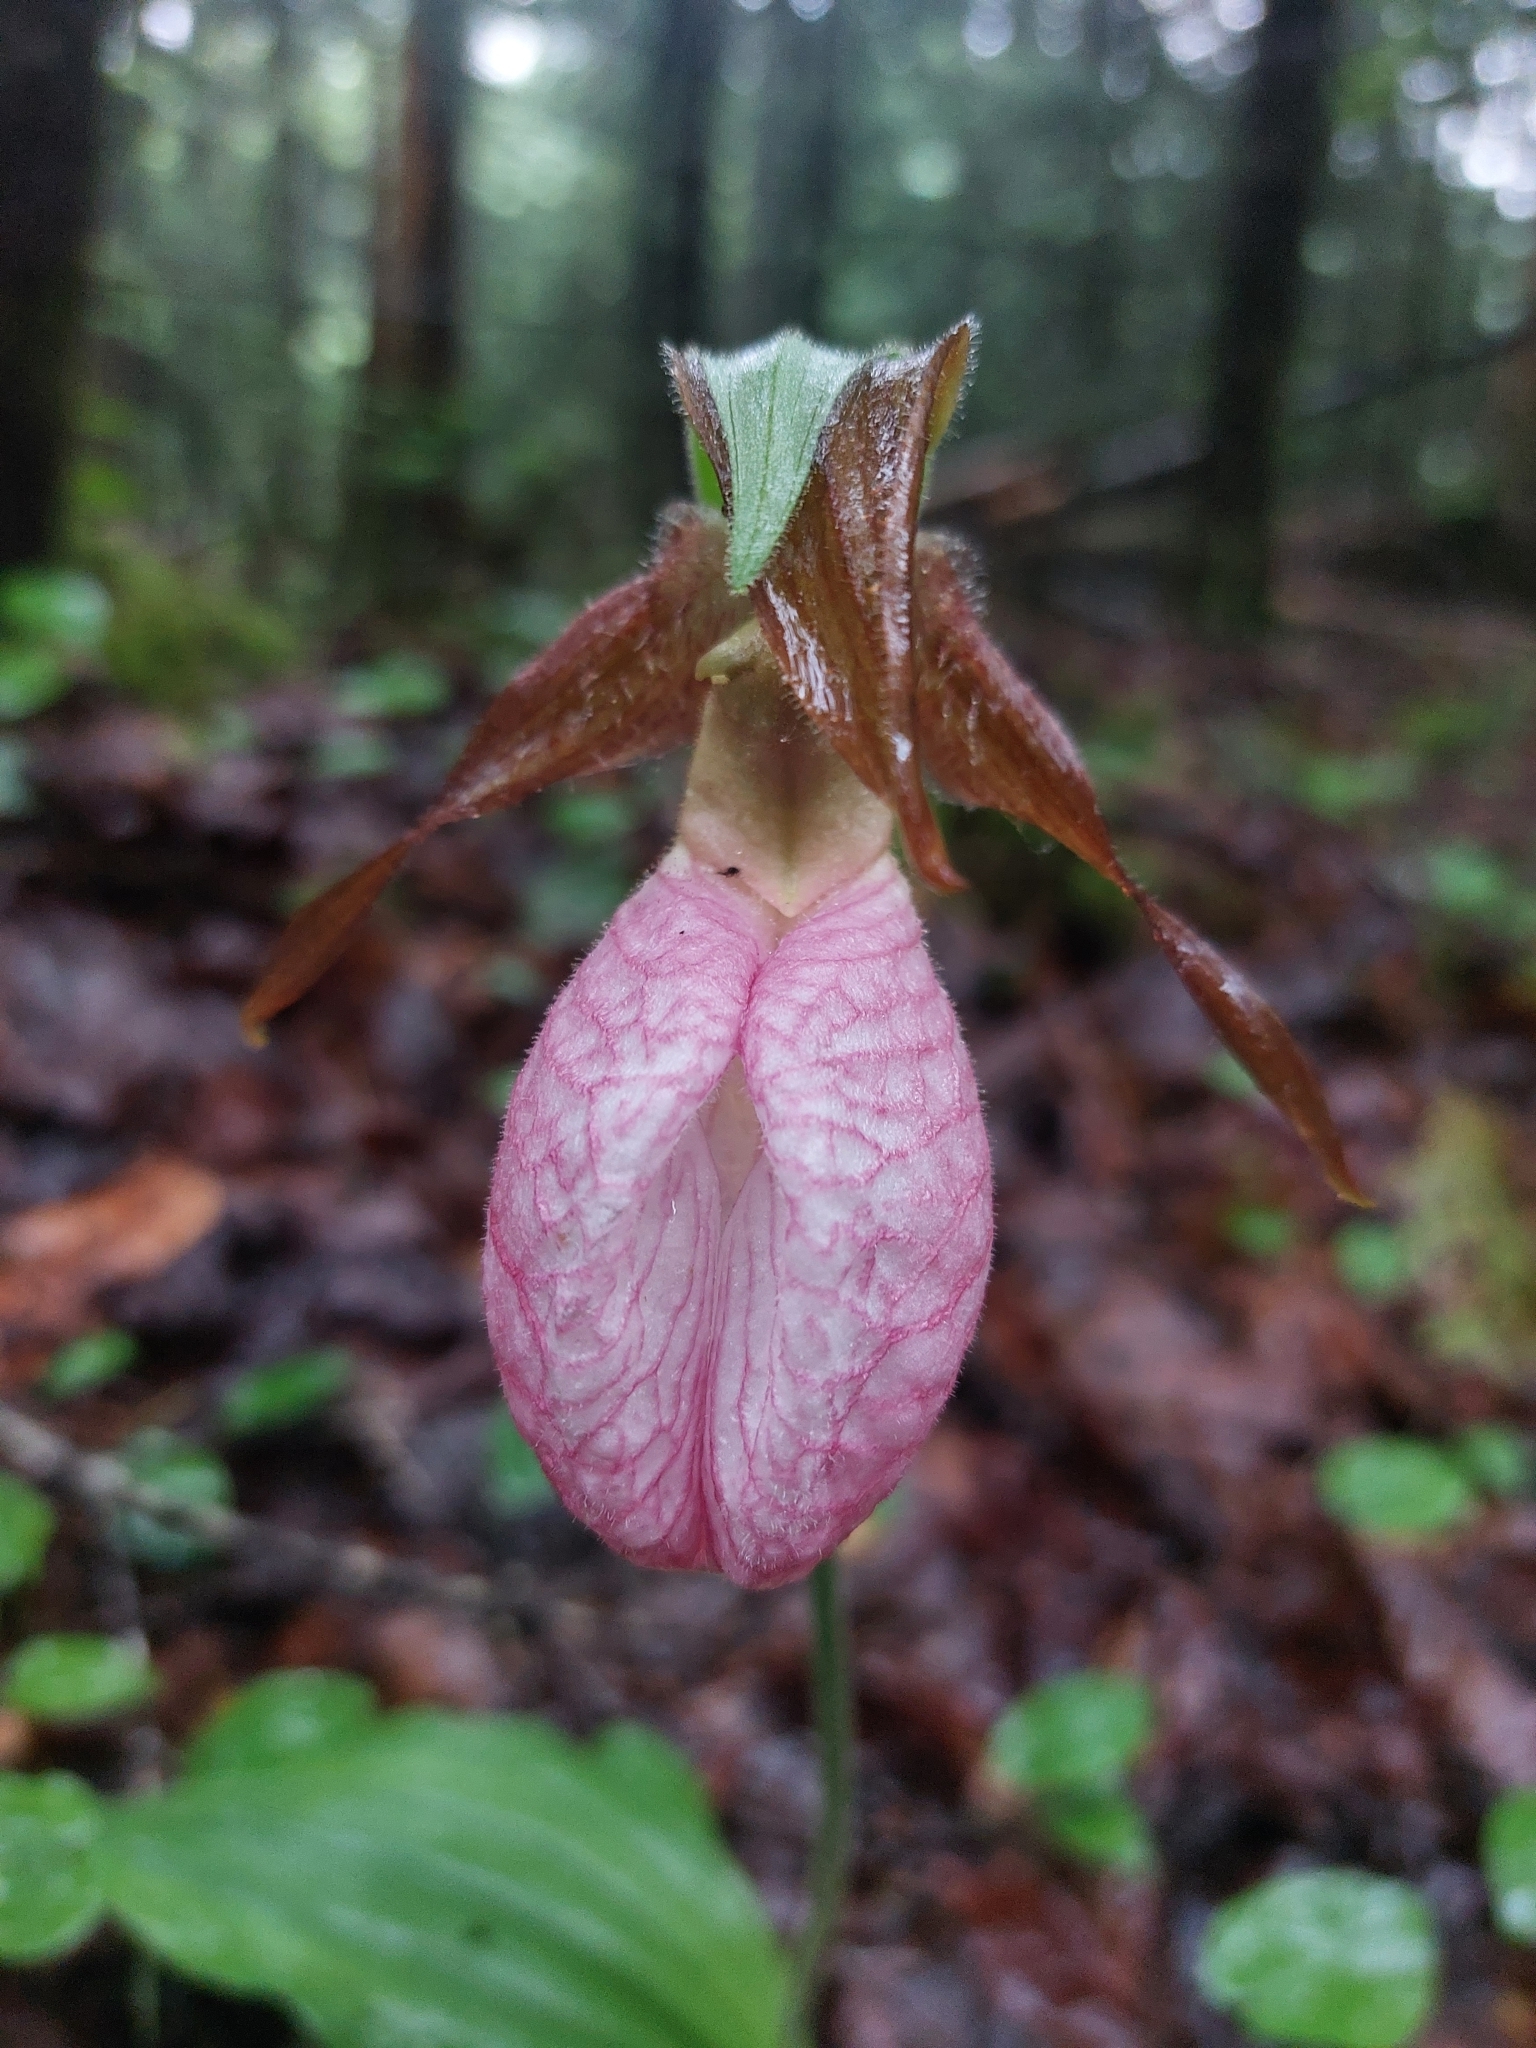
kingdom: Plantae
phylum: Tracheophyta
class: Liliopsida
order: Asparagales
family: Orchidaceae
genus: Cypripedium
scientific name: Cypripedium acaule
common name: Pink lady's-slipper
